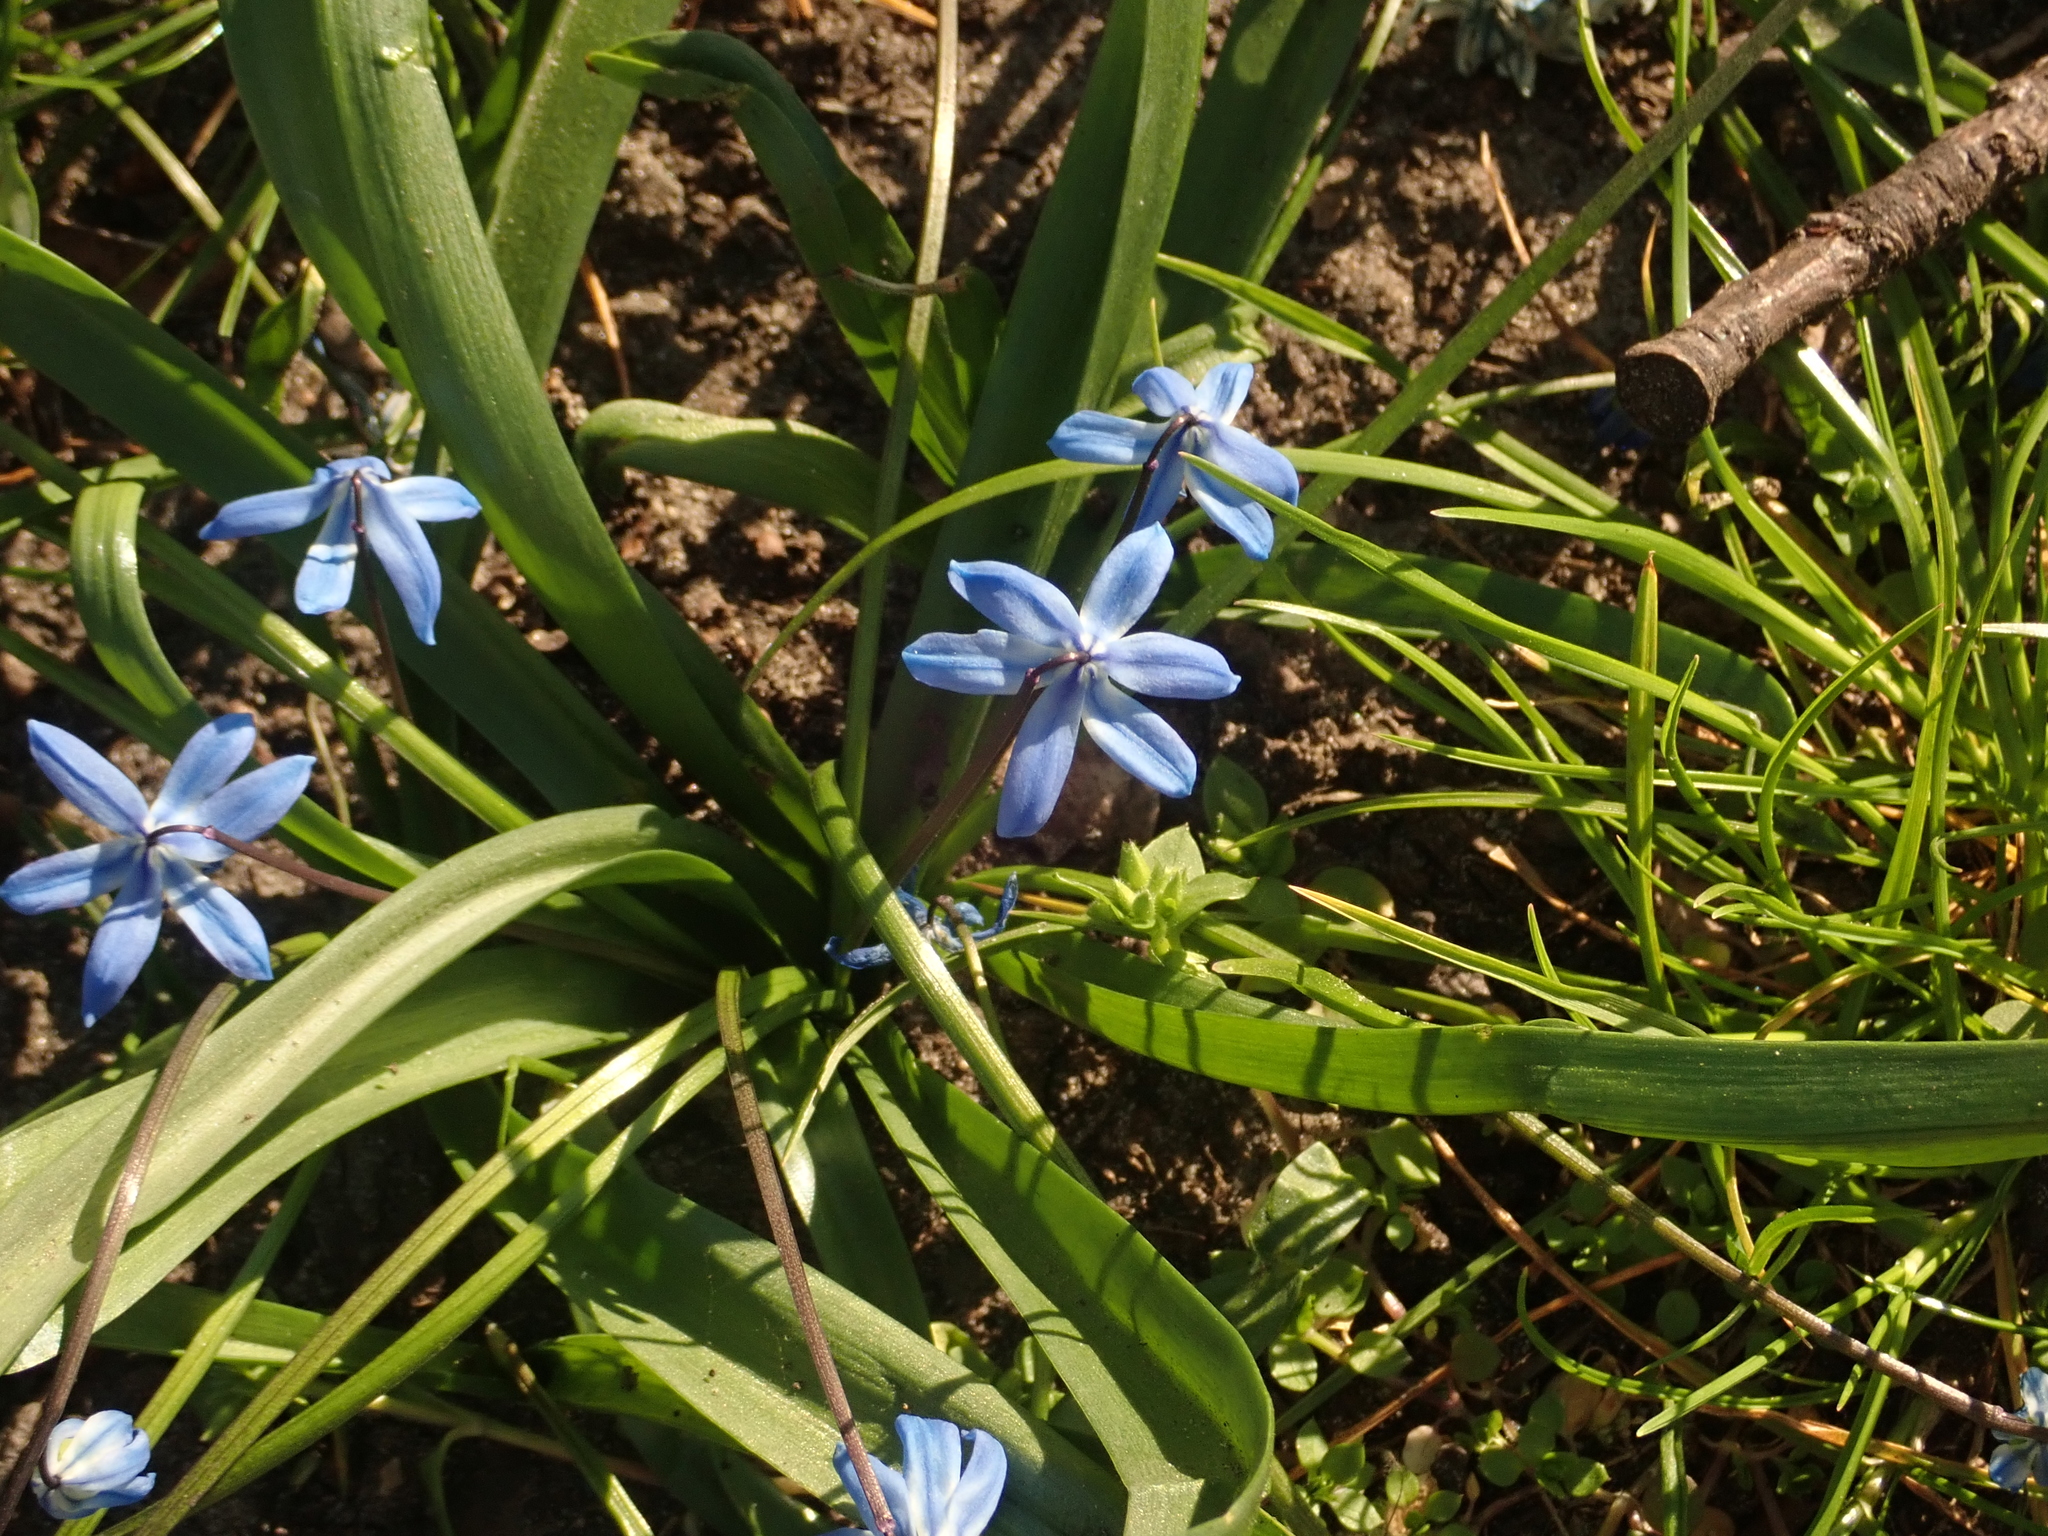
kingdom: Plantae
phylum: Tracheophyta
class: Liliopsida
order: Asparagales
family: Asparagaceae
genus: Scilla
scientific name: Scilla siberica
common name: Siberian squill
